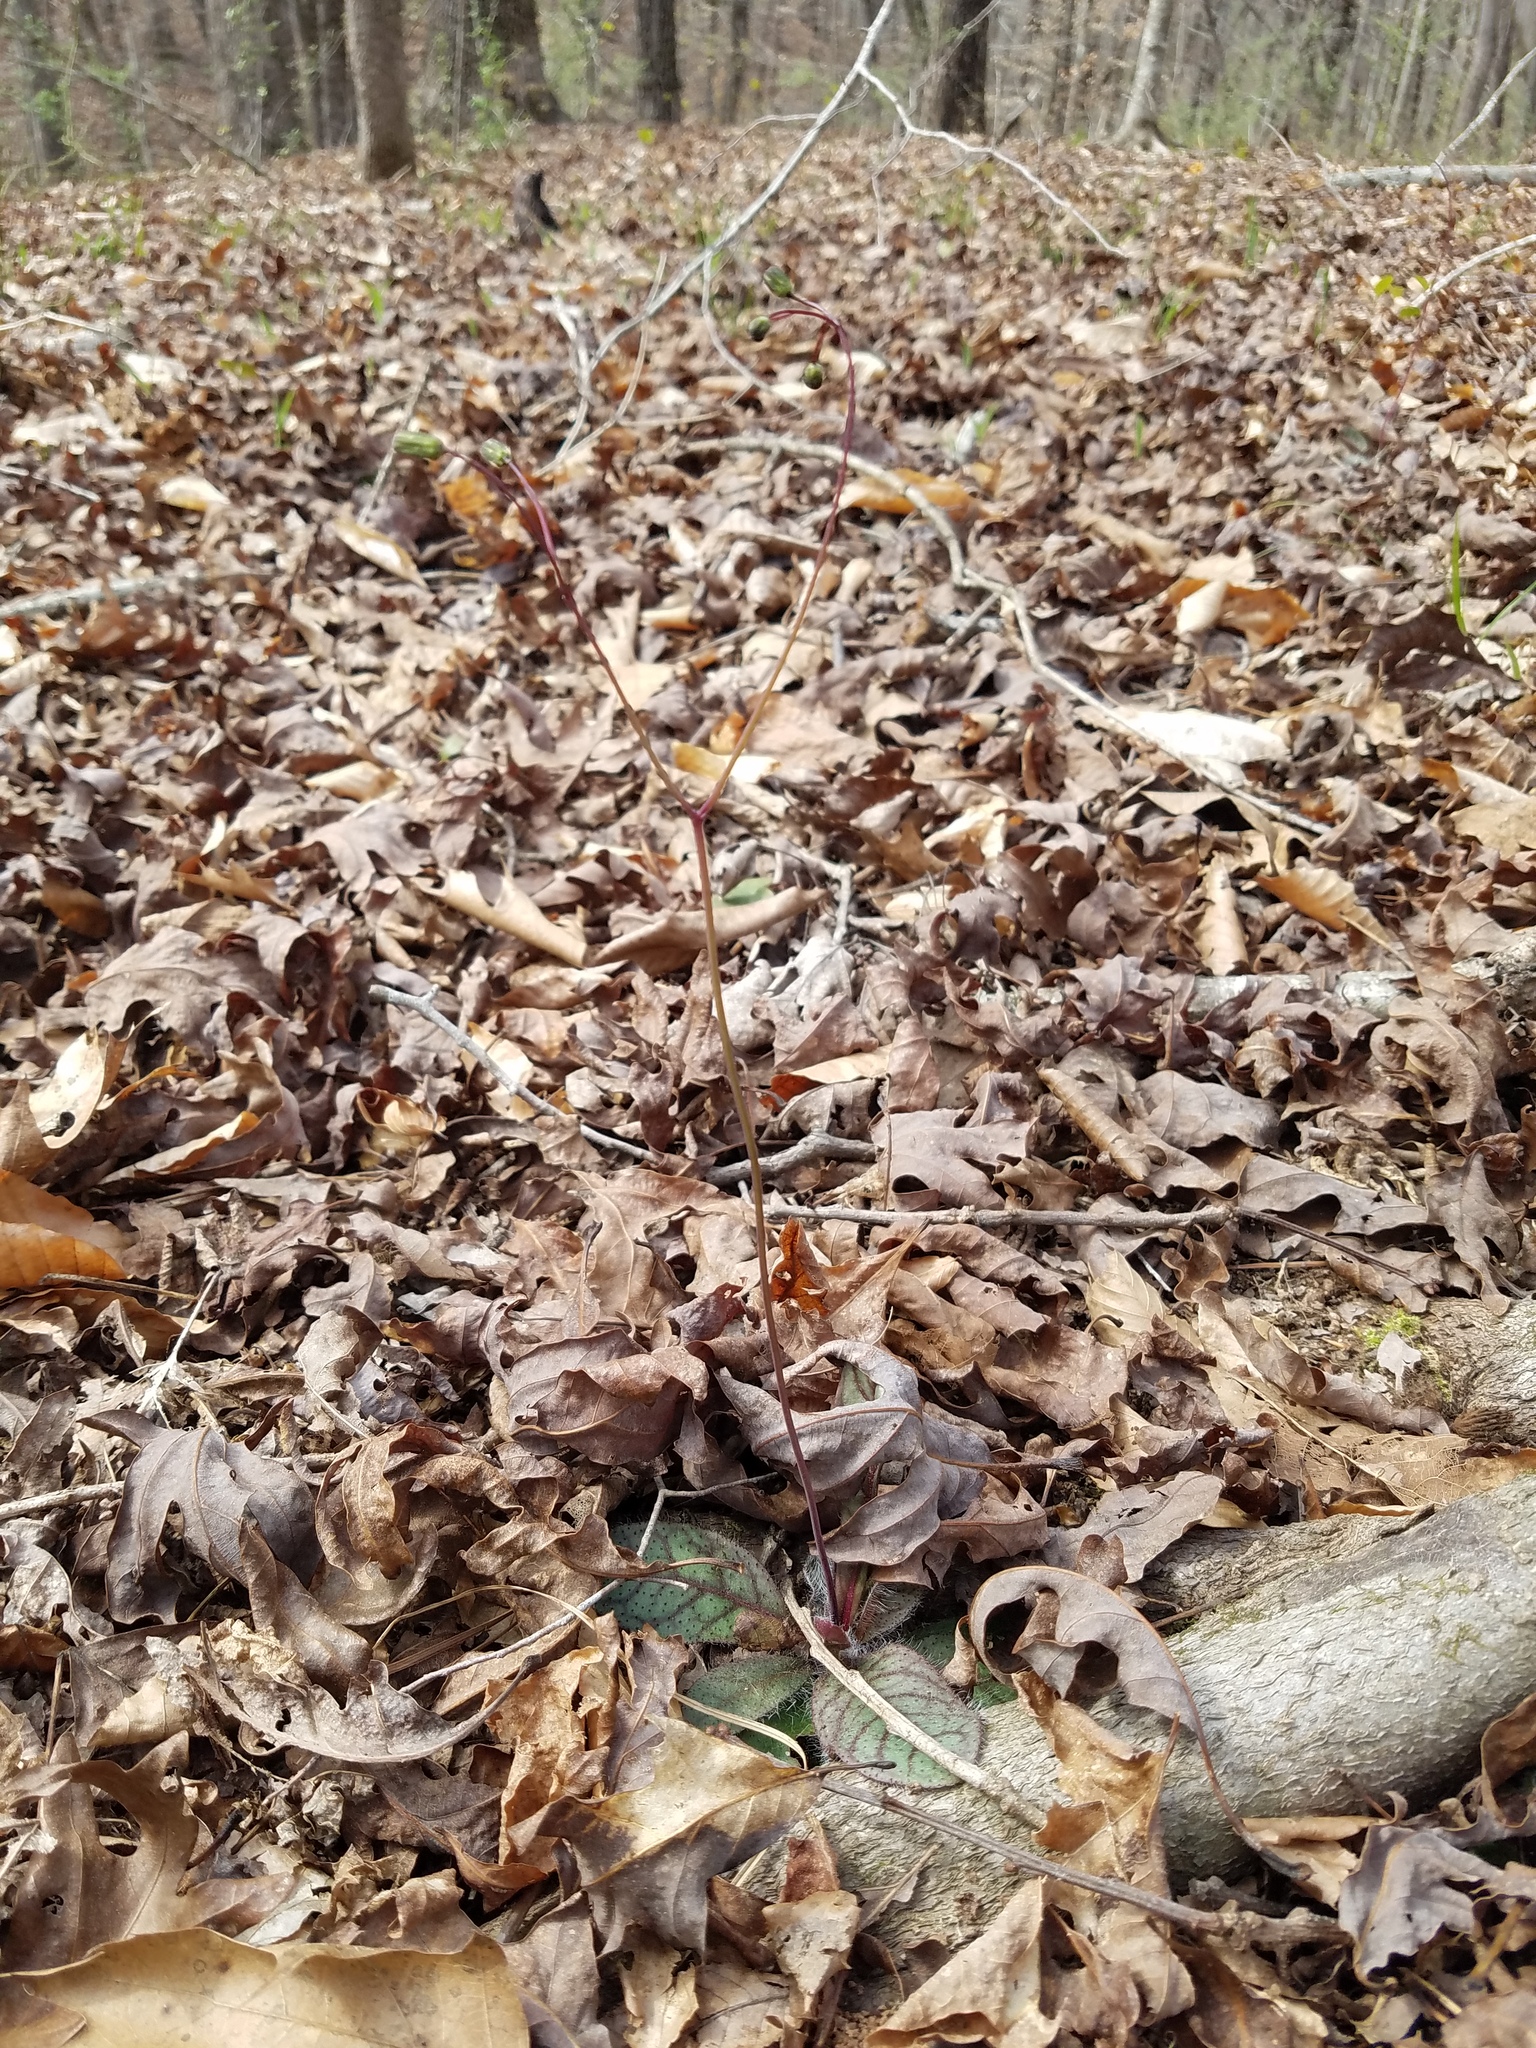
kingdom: Plantae
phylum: Tracheophyta
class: Magnoliopsida
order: Asterales
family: Asteraceae
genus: Hieracium
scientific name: Hieracium venosum
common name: Rattlesnake hawkweed
